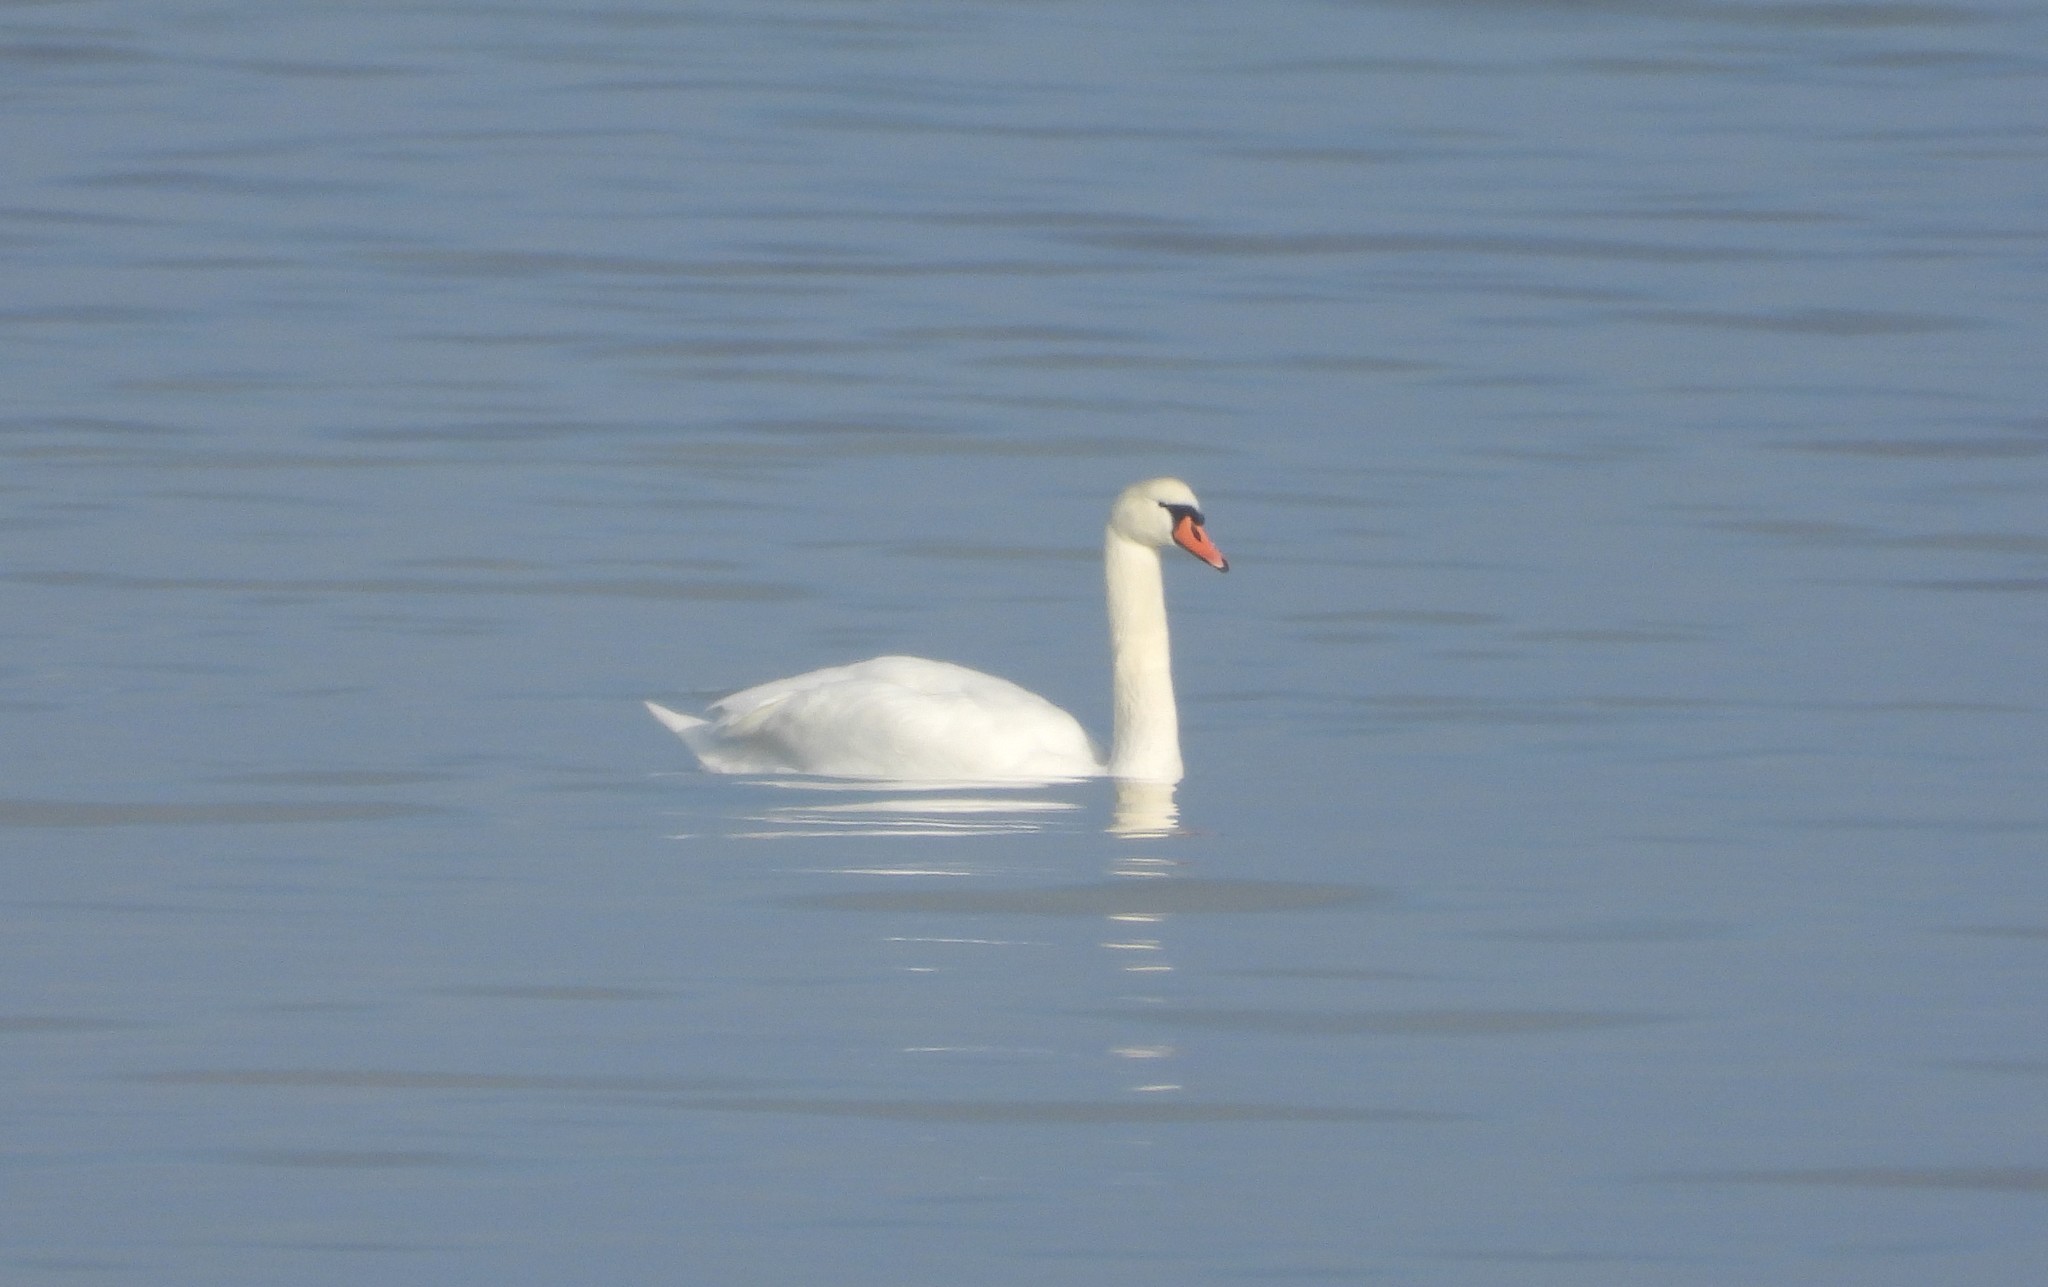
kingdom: Animalia
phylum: Chordata
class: Aves
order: Anseriformes
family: Anatidae
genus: Cygnus
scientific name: Cygnus olor
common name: Mute swan
